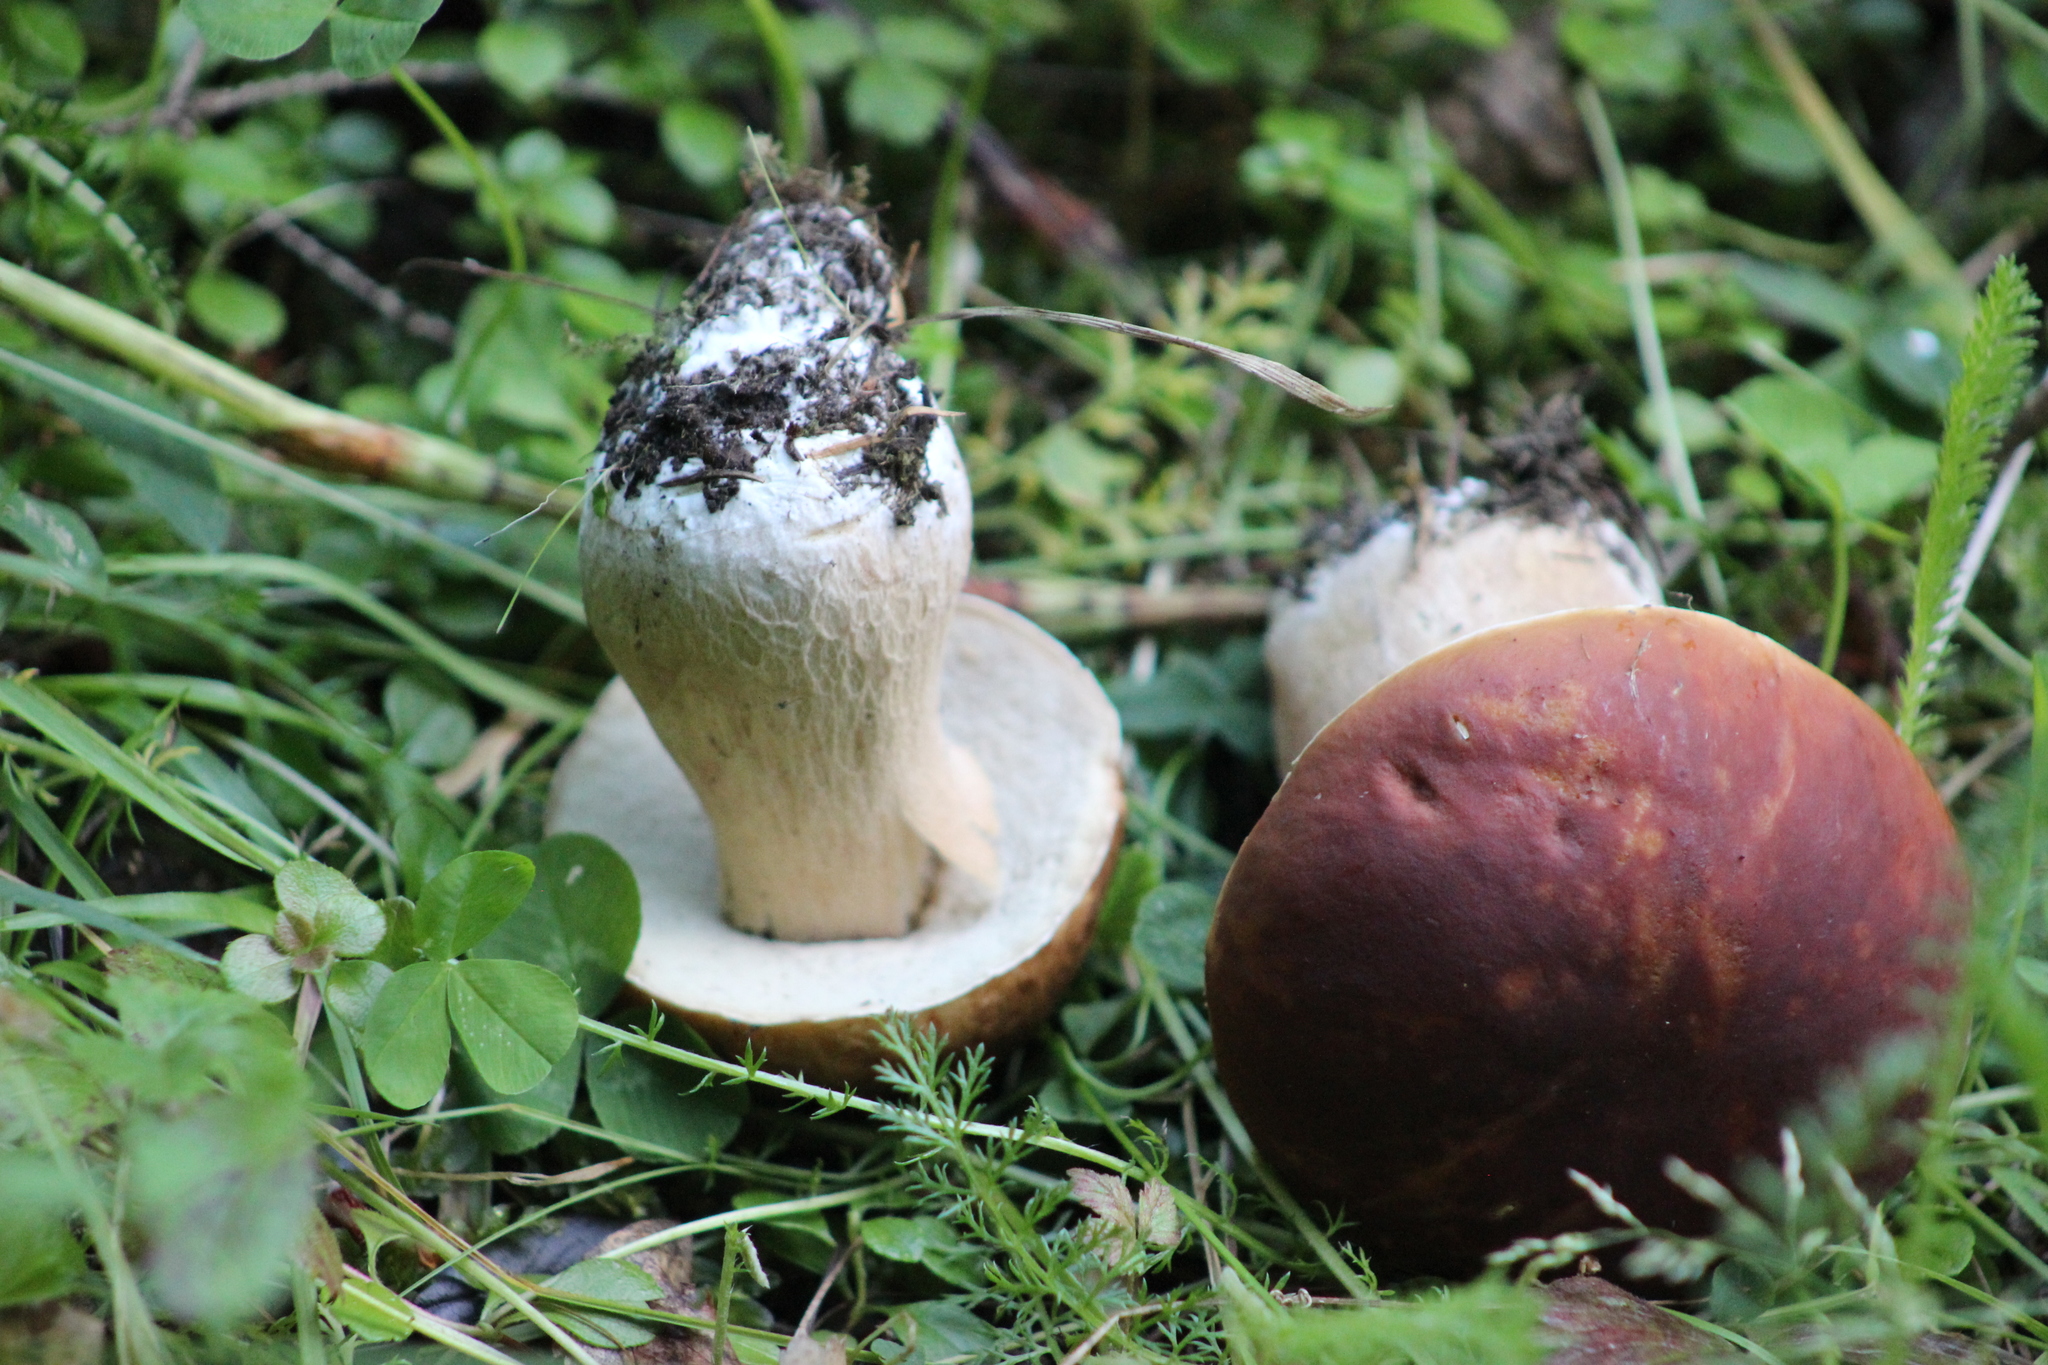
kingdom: Fungi
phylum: Basidiomycota
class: Agaricomycetes
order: Boletales
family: Boletaceae
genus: Boletus
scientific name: Boletus pinophilus
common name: Pine bolete
